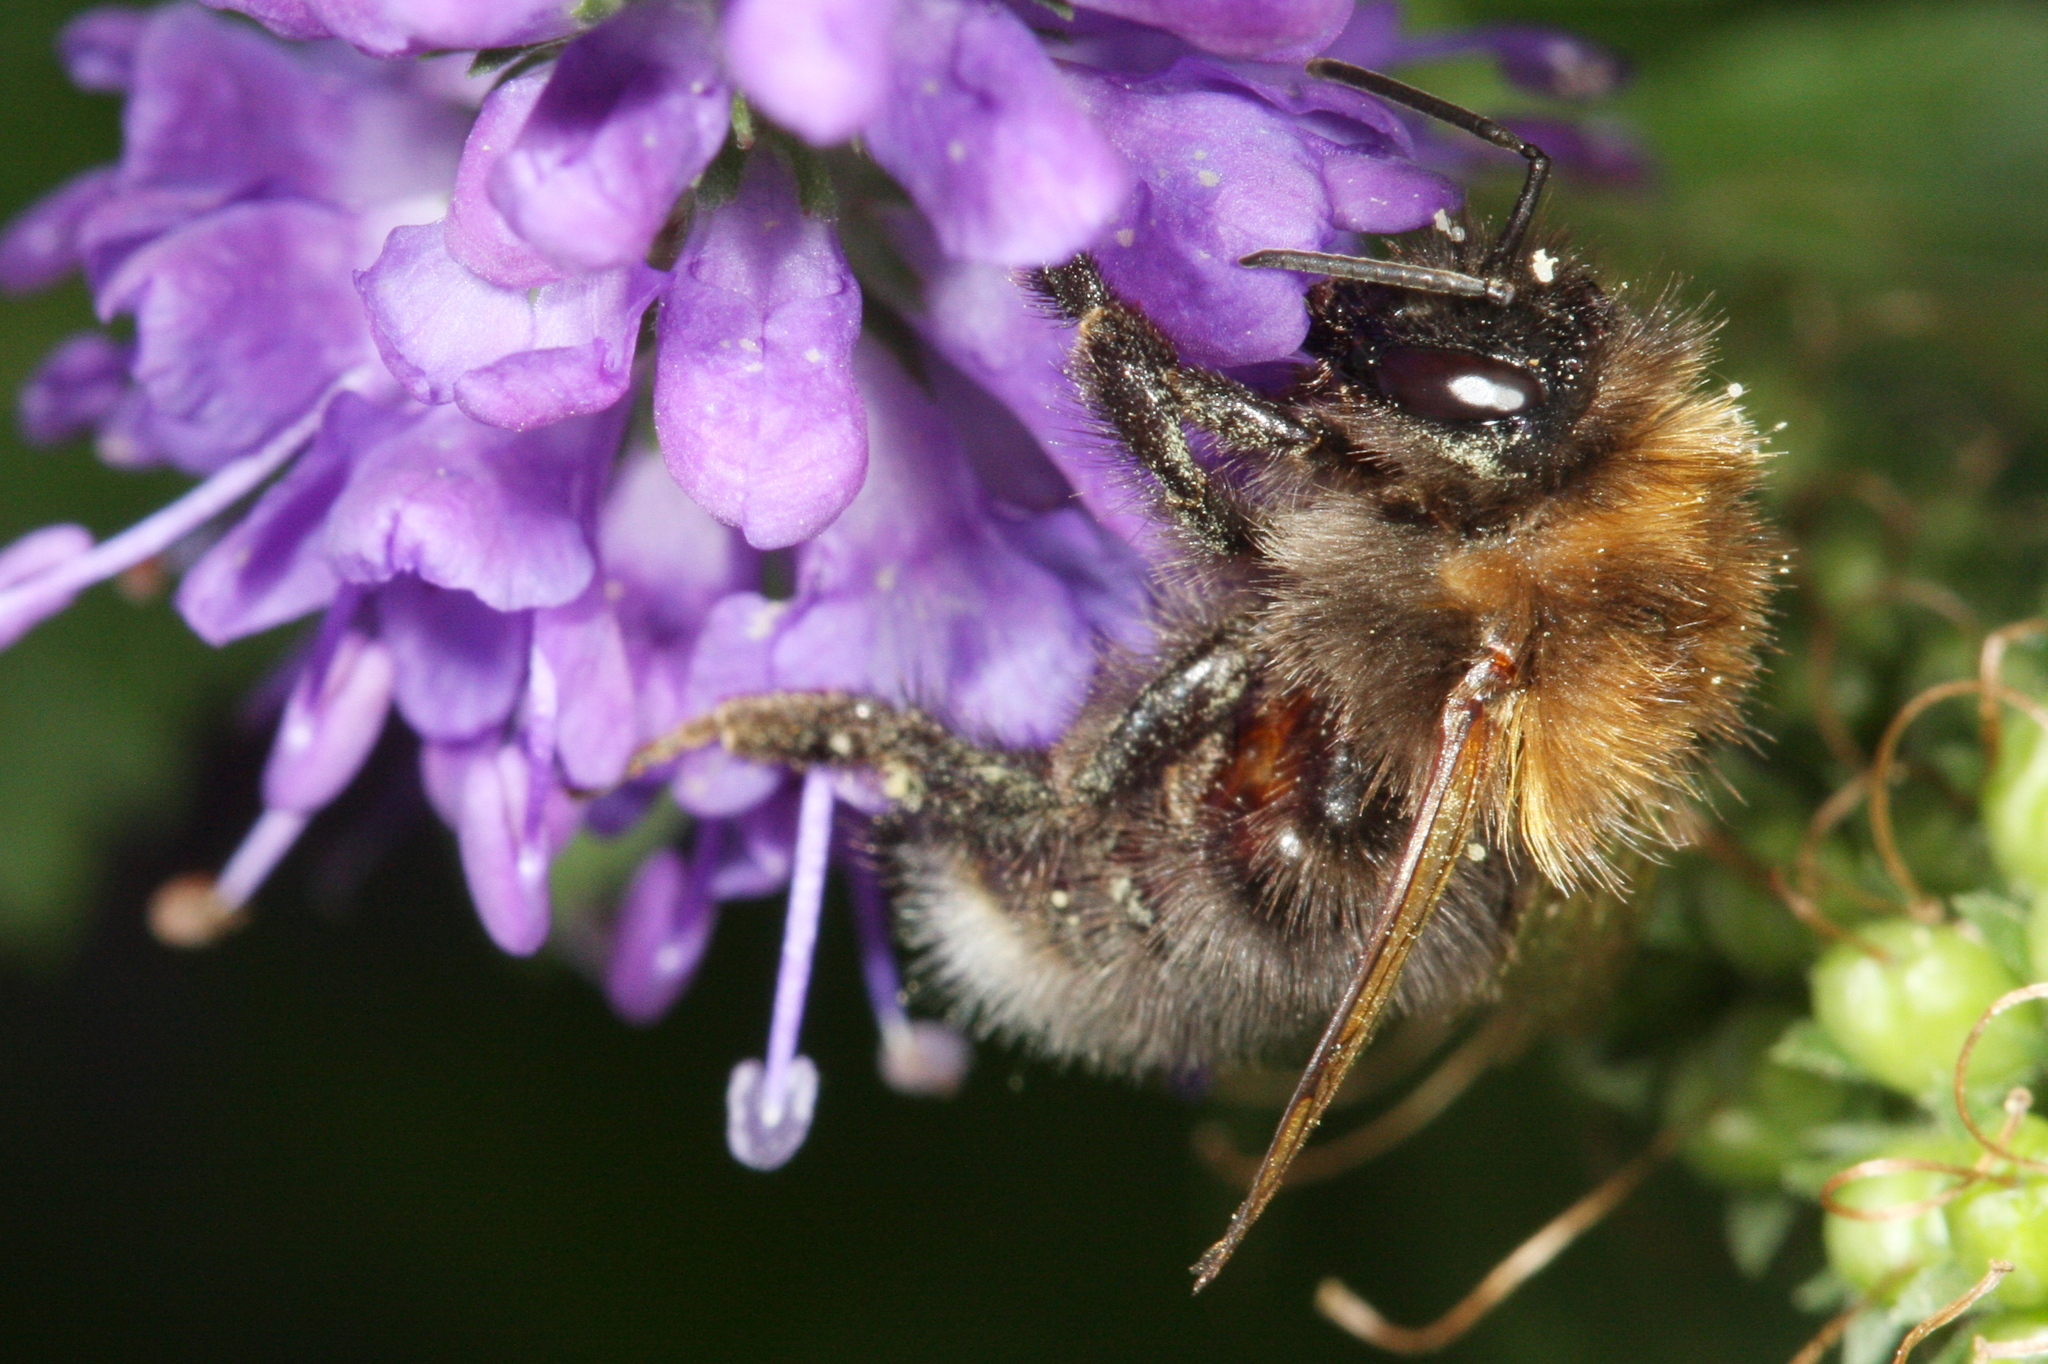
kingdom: Animalia
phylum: Arthropoda
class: Insecta
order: Hymenoptera
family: Apidae
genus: Bombus
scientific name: Bombus hypnorum
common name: New garden bumblebee
